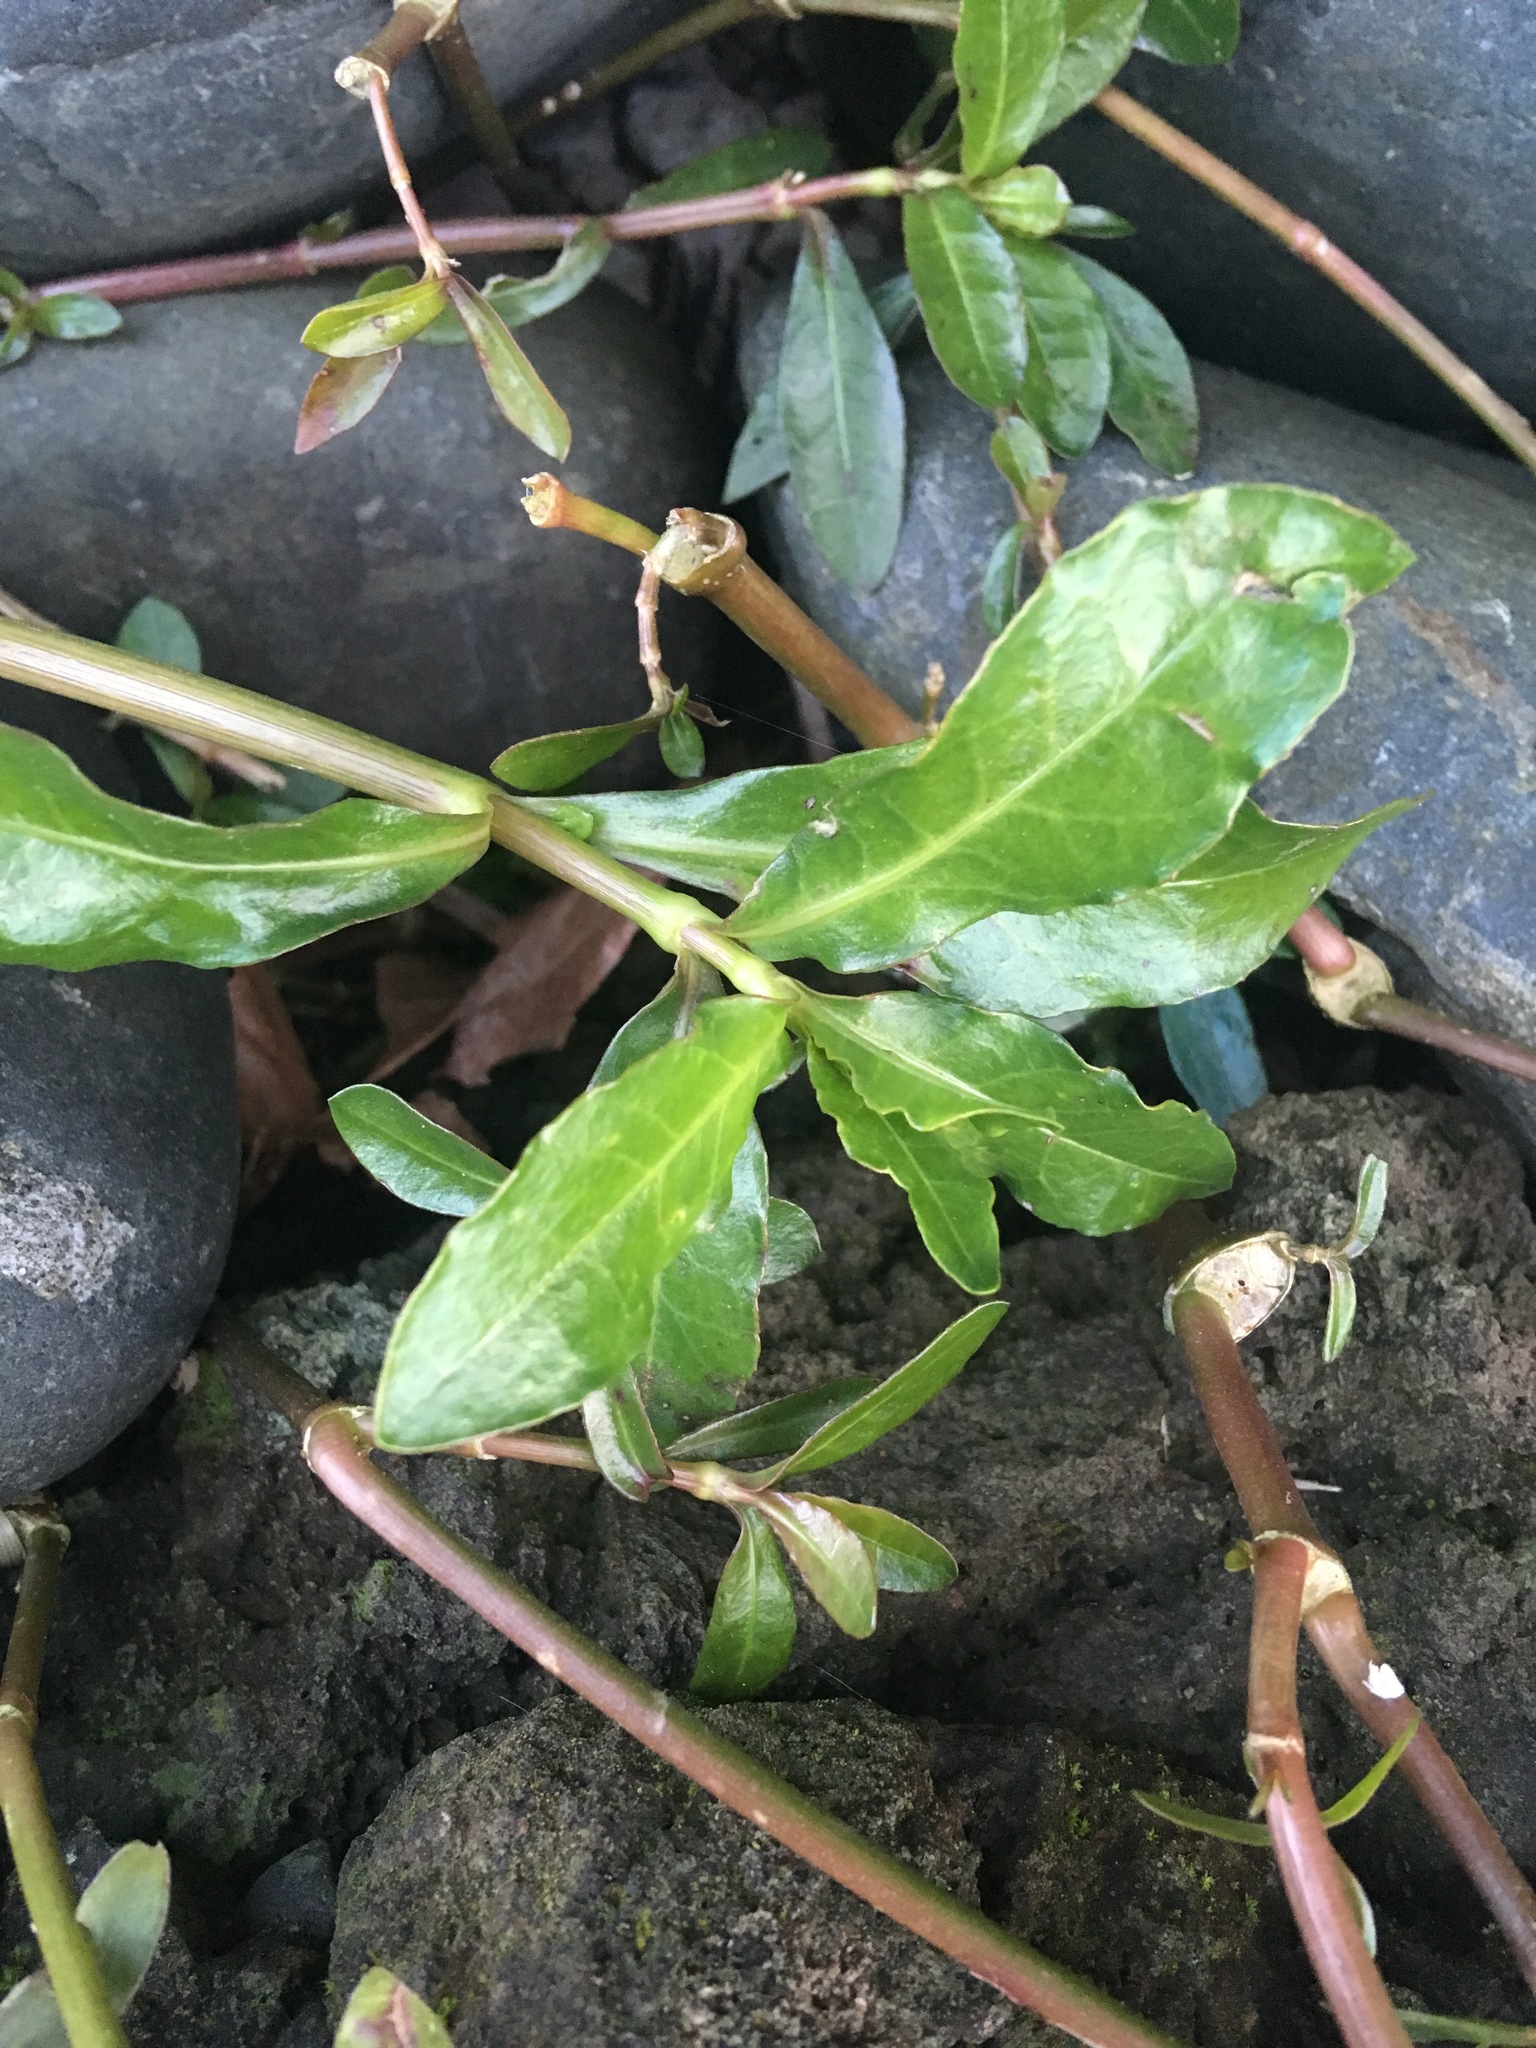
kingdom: Plantae
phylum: Tracheophyta
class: Magnoliopsida
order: Caryophyllales
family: Amaranthaceae
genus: Alternanthera
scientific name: Alternanthera philoxeroides
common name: Alligatorweed
